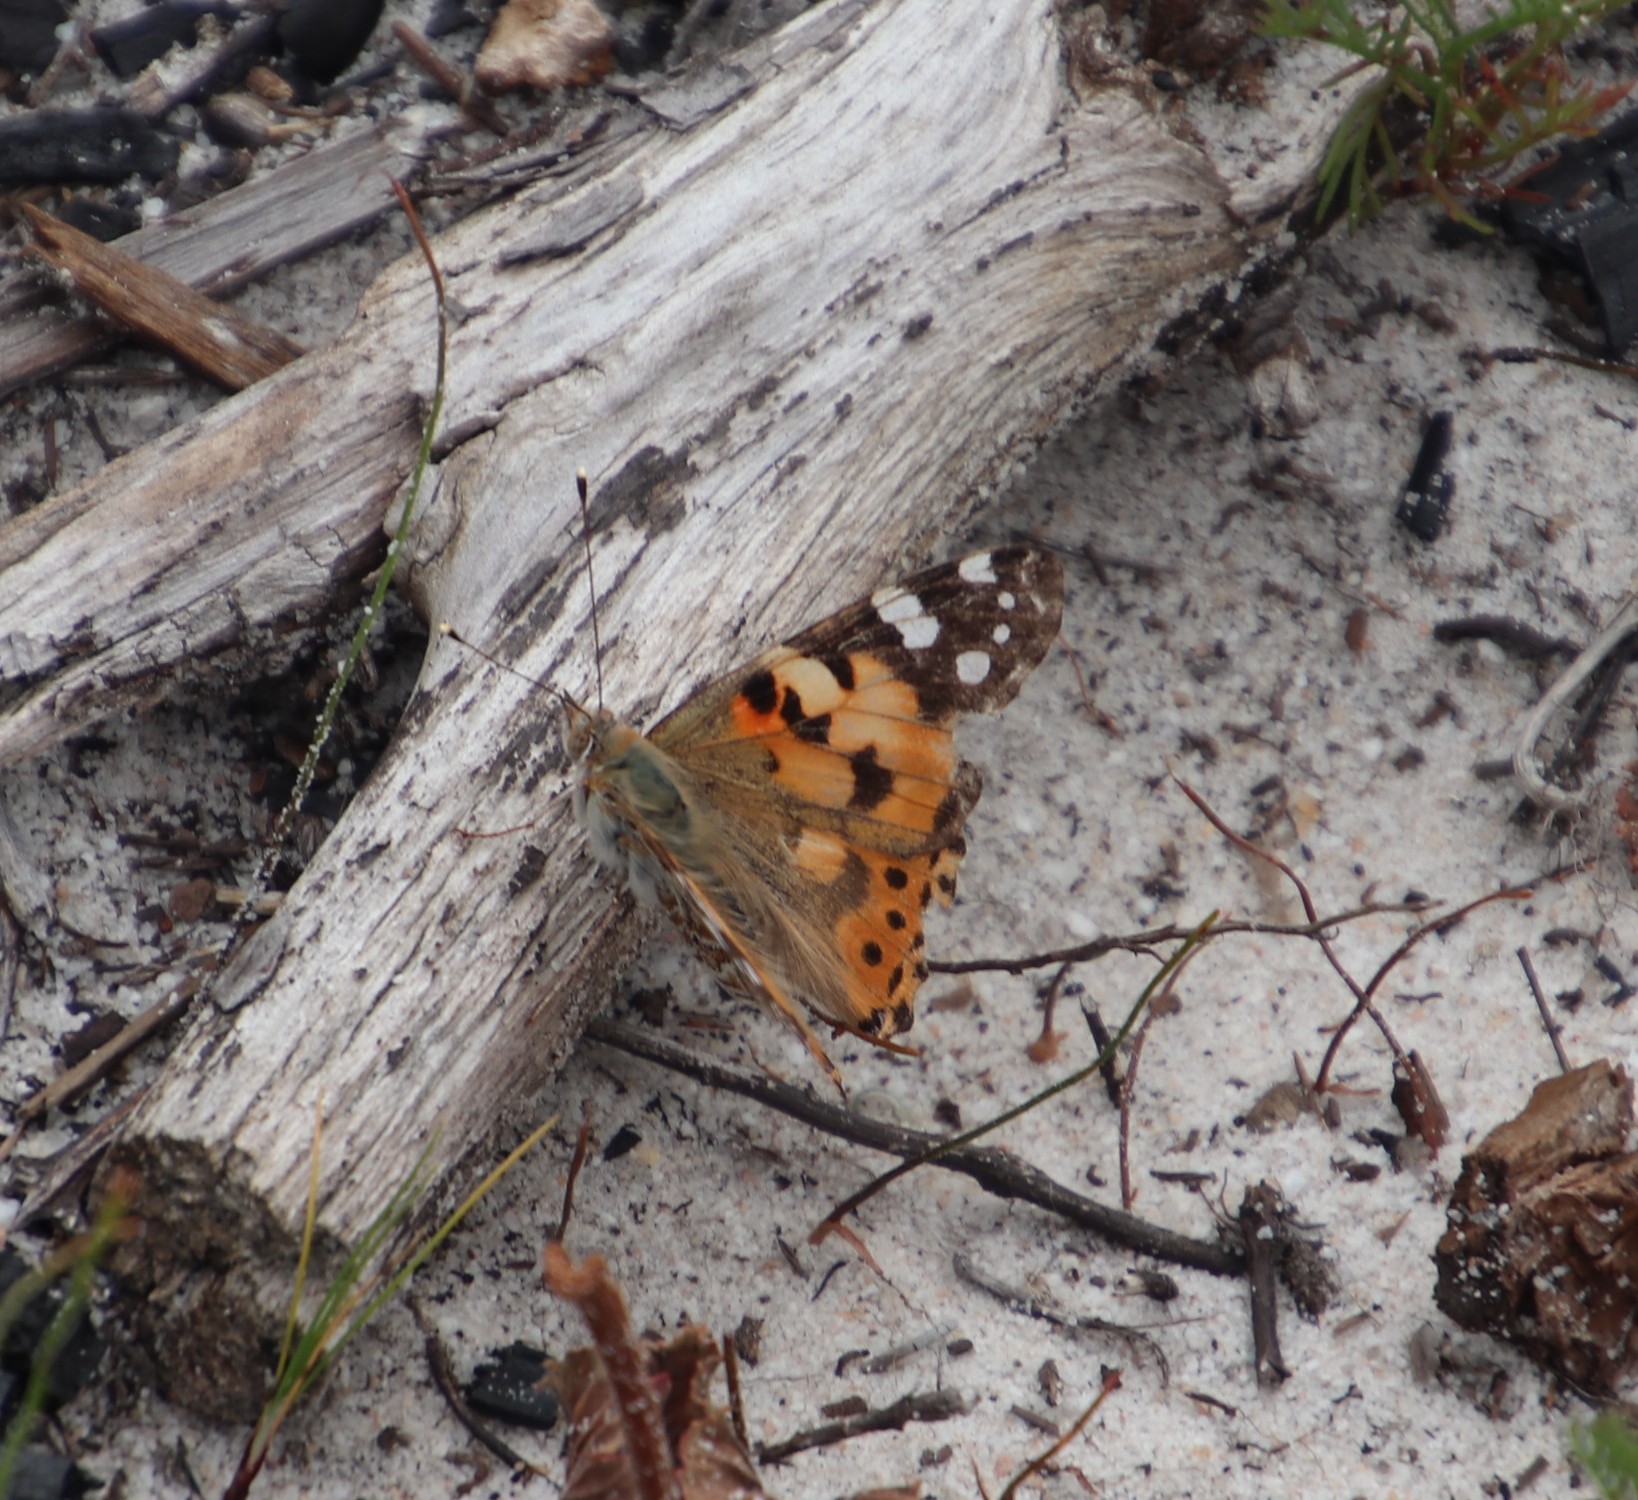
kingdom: Animalia
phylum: Arthropoda
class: Insecta
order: Lepidoptera
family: Nymphalidae
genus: Vanessa
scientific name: Vanessa cardui
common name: Painted lady
